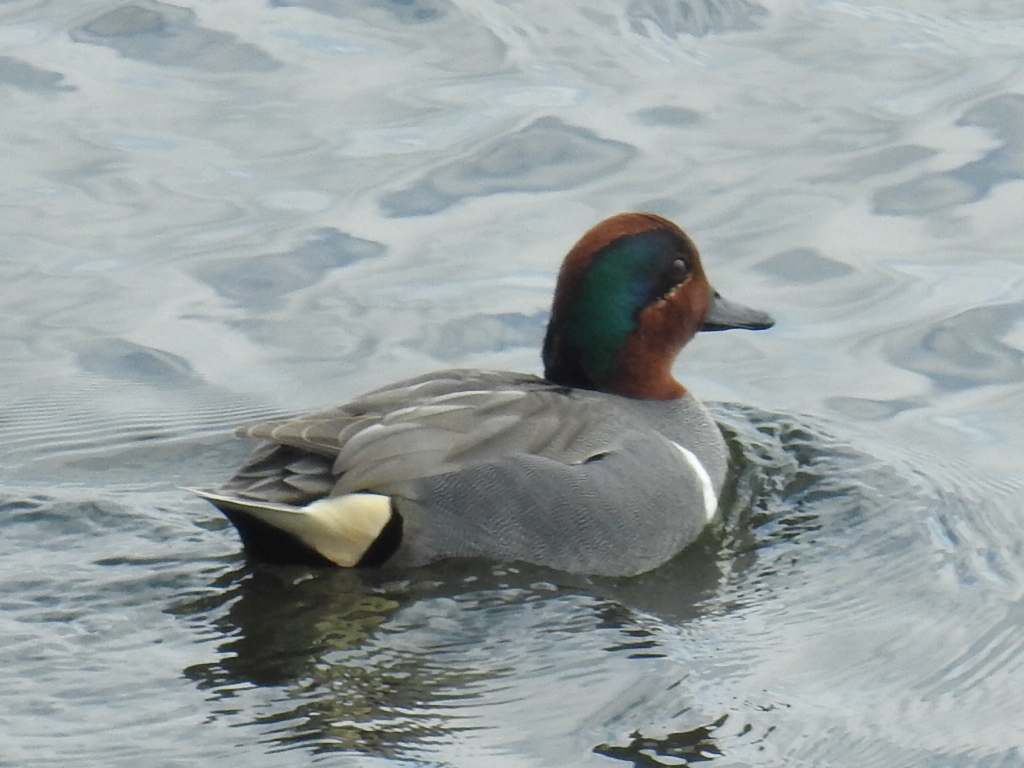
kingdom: Animalia
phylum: Chordata
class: Aves
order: Anseriformes
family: Anatidae
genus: Anas
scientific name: Anas crecca
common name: Eurasian teal
